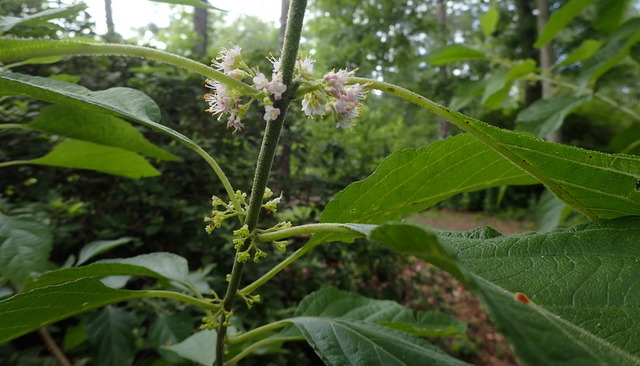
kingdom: Plantae
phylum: Tracheophyta
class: Magnoliopsida
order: Lamiales
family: Lamiaceae
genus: Callicarpa
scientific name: Callicarpa americana
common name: American beautyberry
